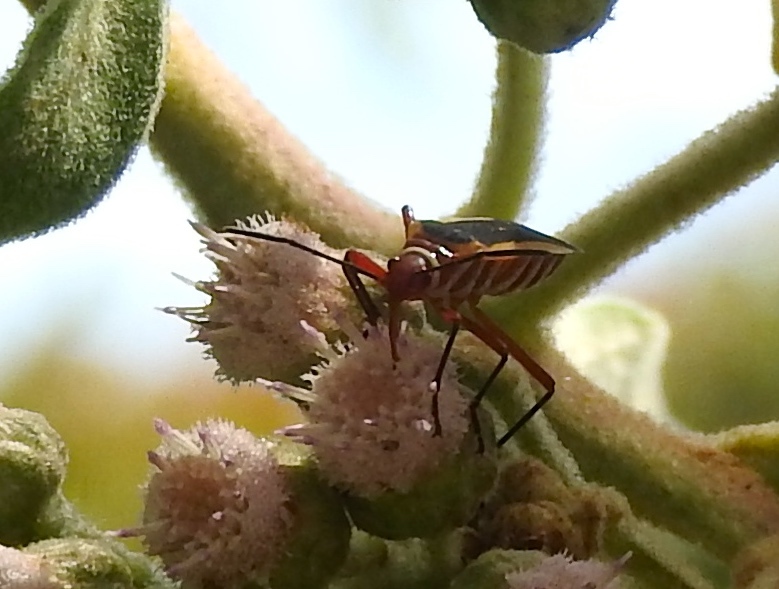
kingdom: Animalia
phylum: Arthropoda
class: Insecta
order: Hemiptera
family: Pyrrhocoridae
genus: Dysdercus
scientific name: Dysdercus obscuratus
